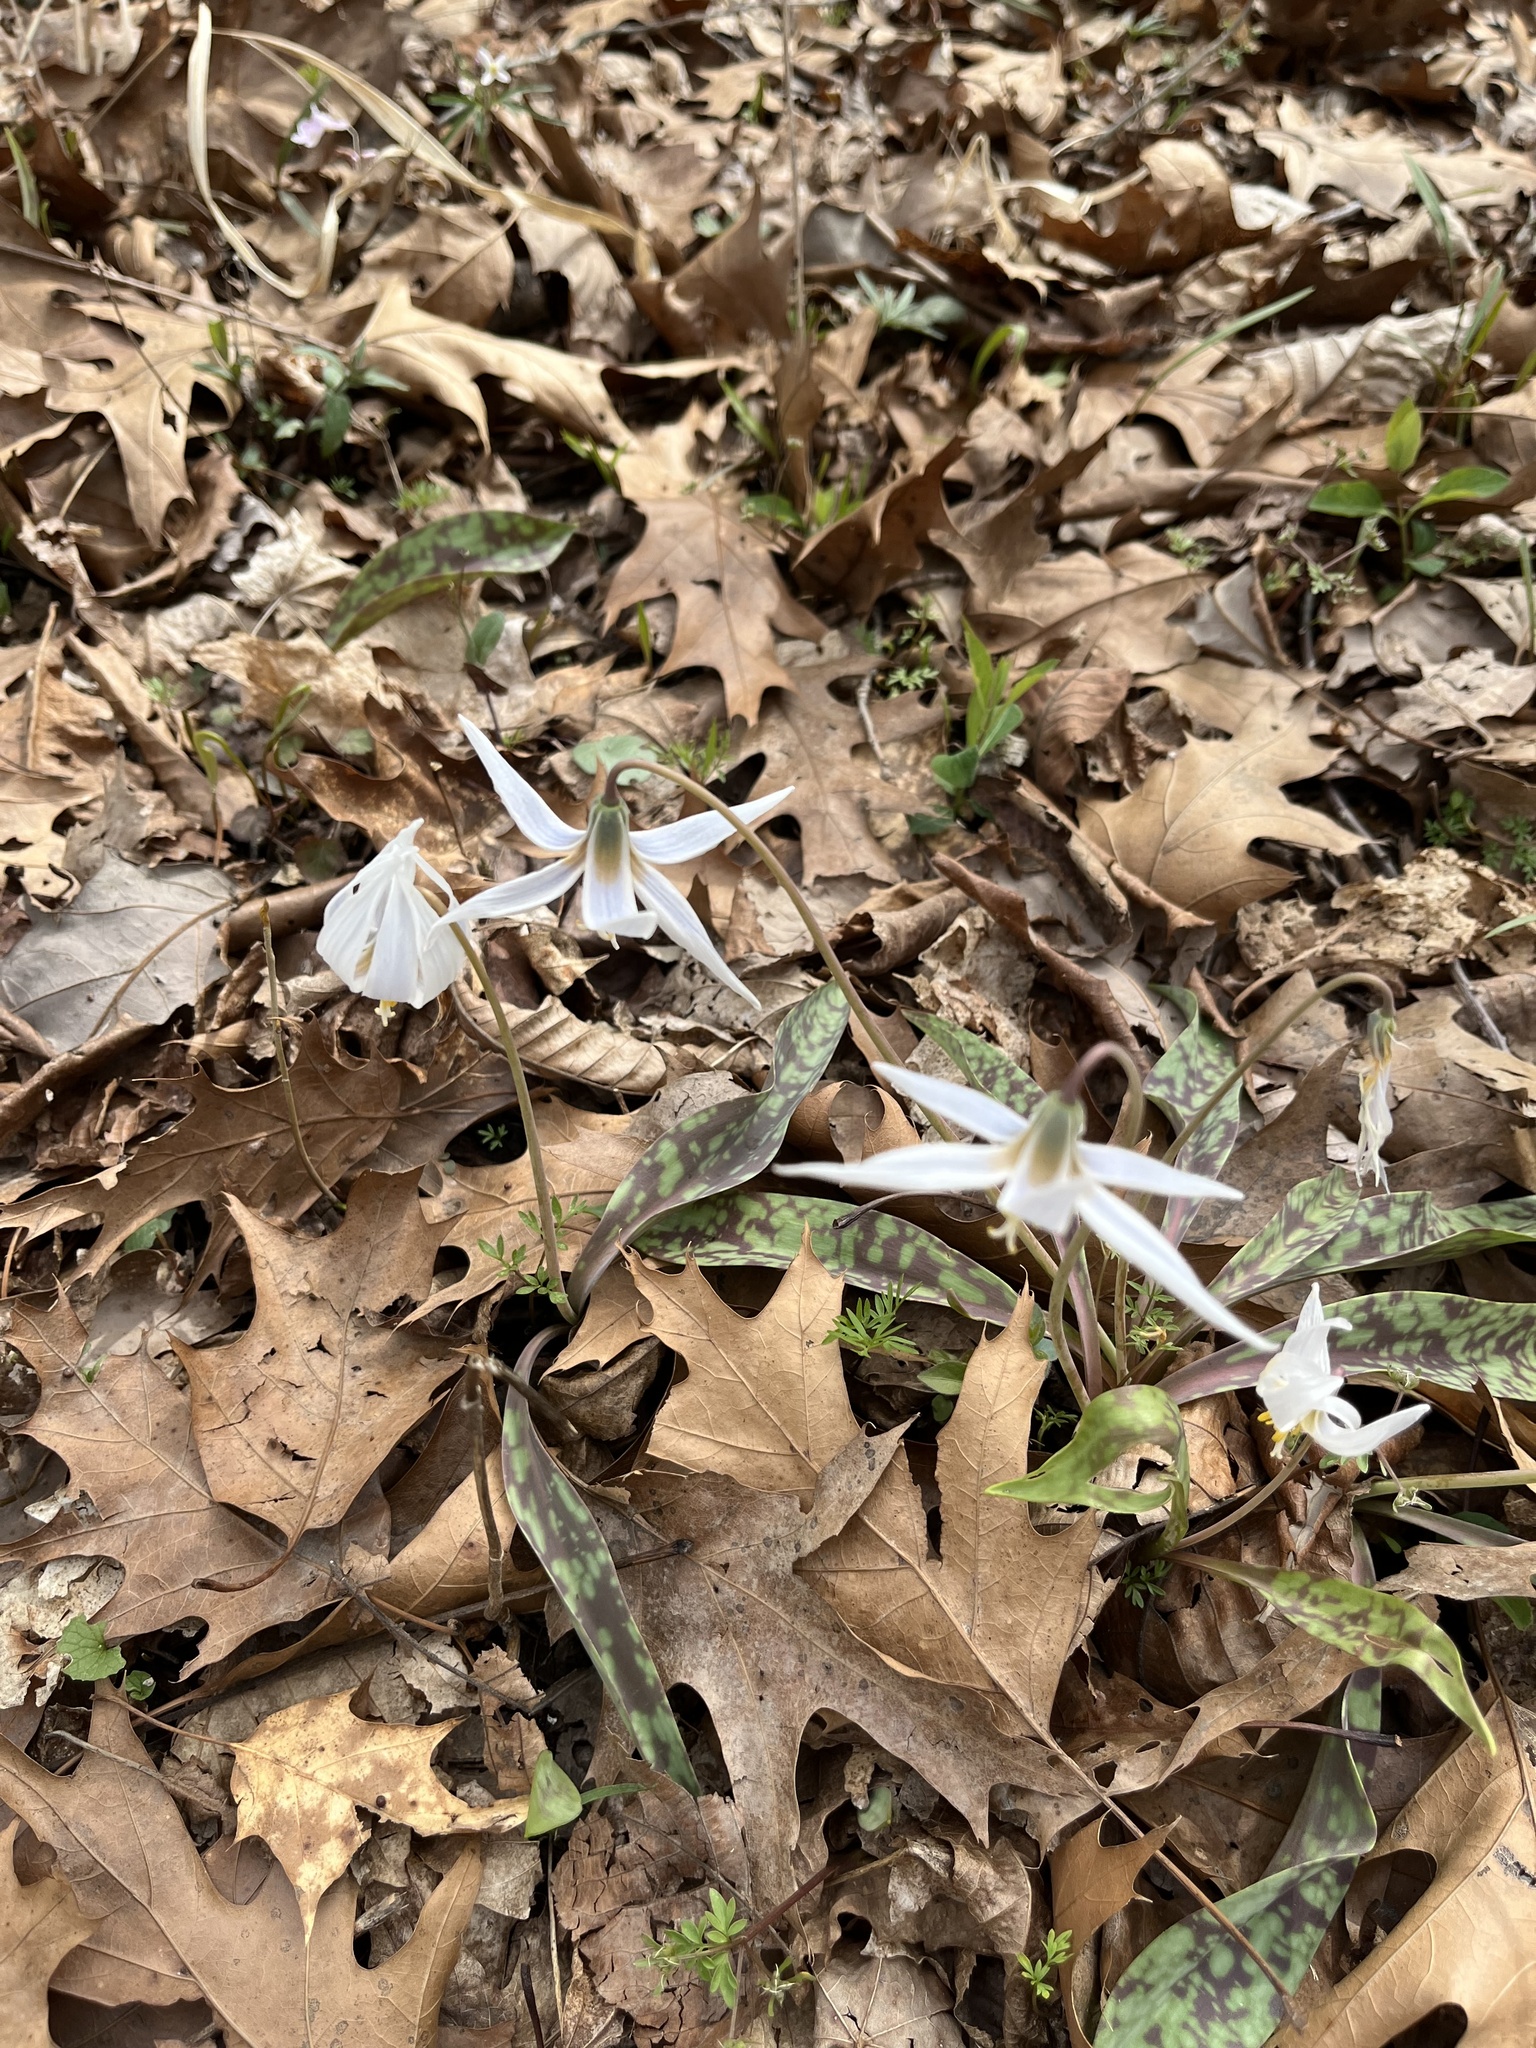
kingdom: Plantae
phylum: Tracheophyta
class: Liliopsida
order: Liliales
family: Liliaceae
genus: Erythronium
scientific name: Erythronium albidum
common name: White trout-lily
